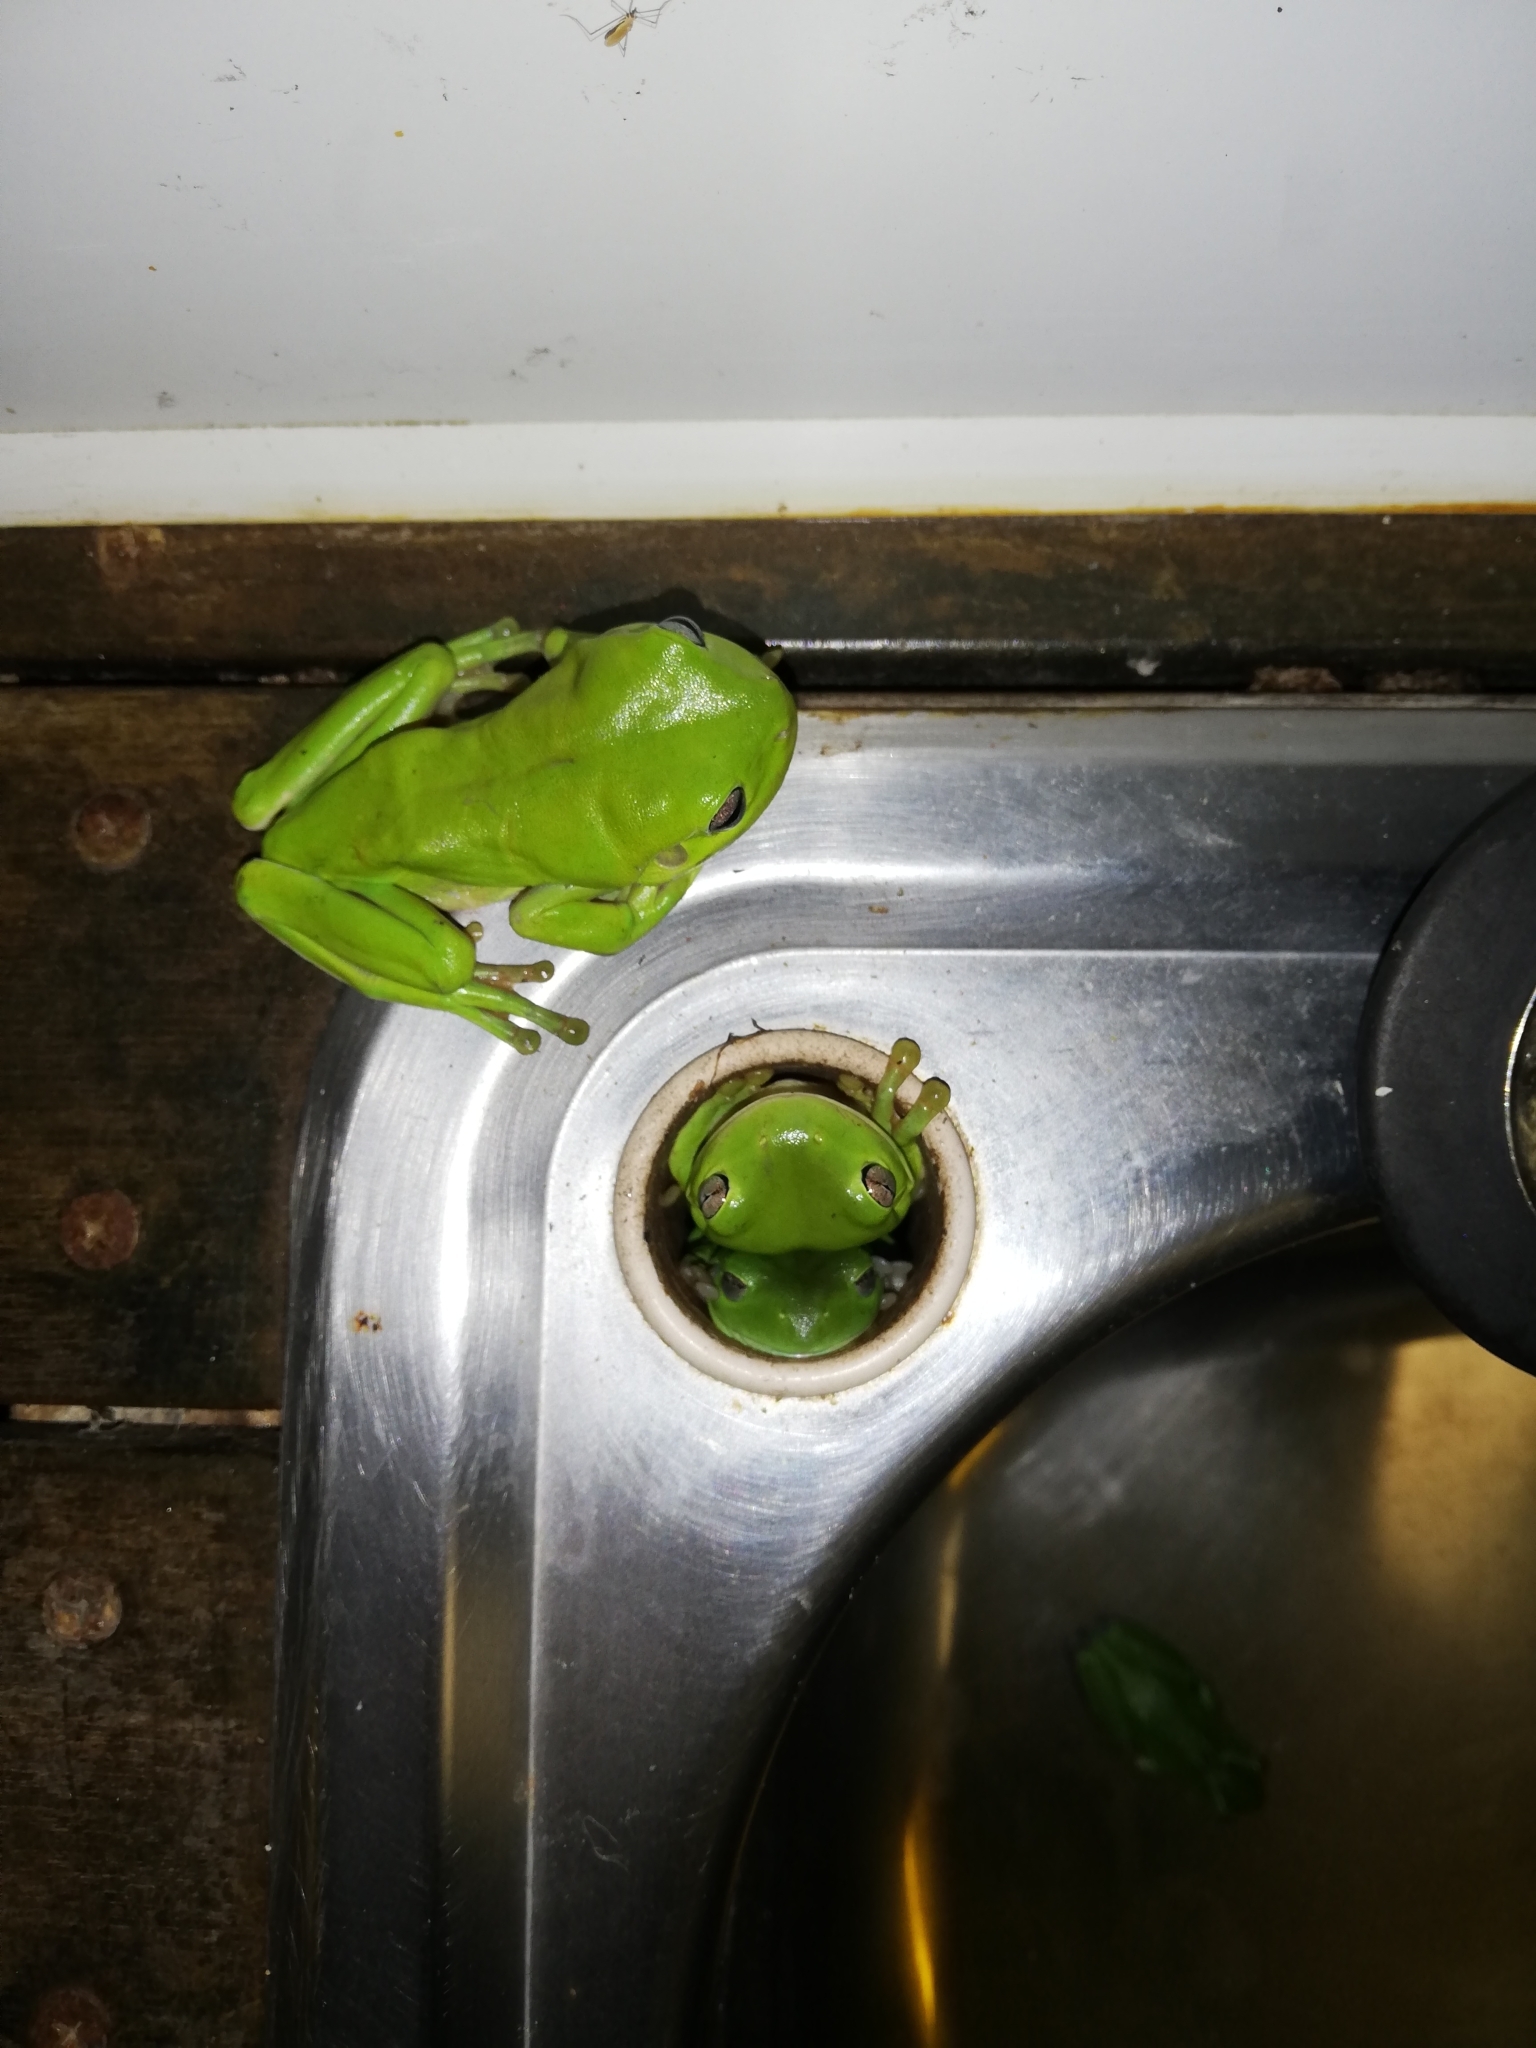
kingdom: Animalia
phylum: Chordata
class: Amphibia
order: Anura
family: Pelodryadidae
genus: Ranoidea
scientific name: Ranoidea caerulea
